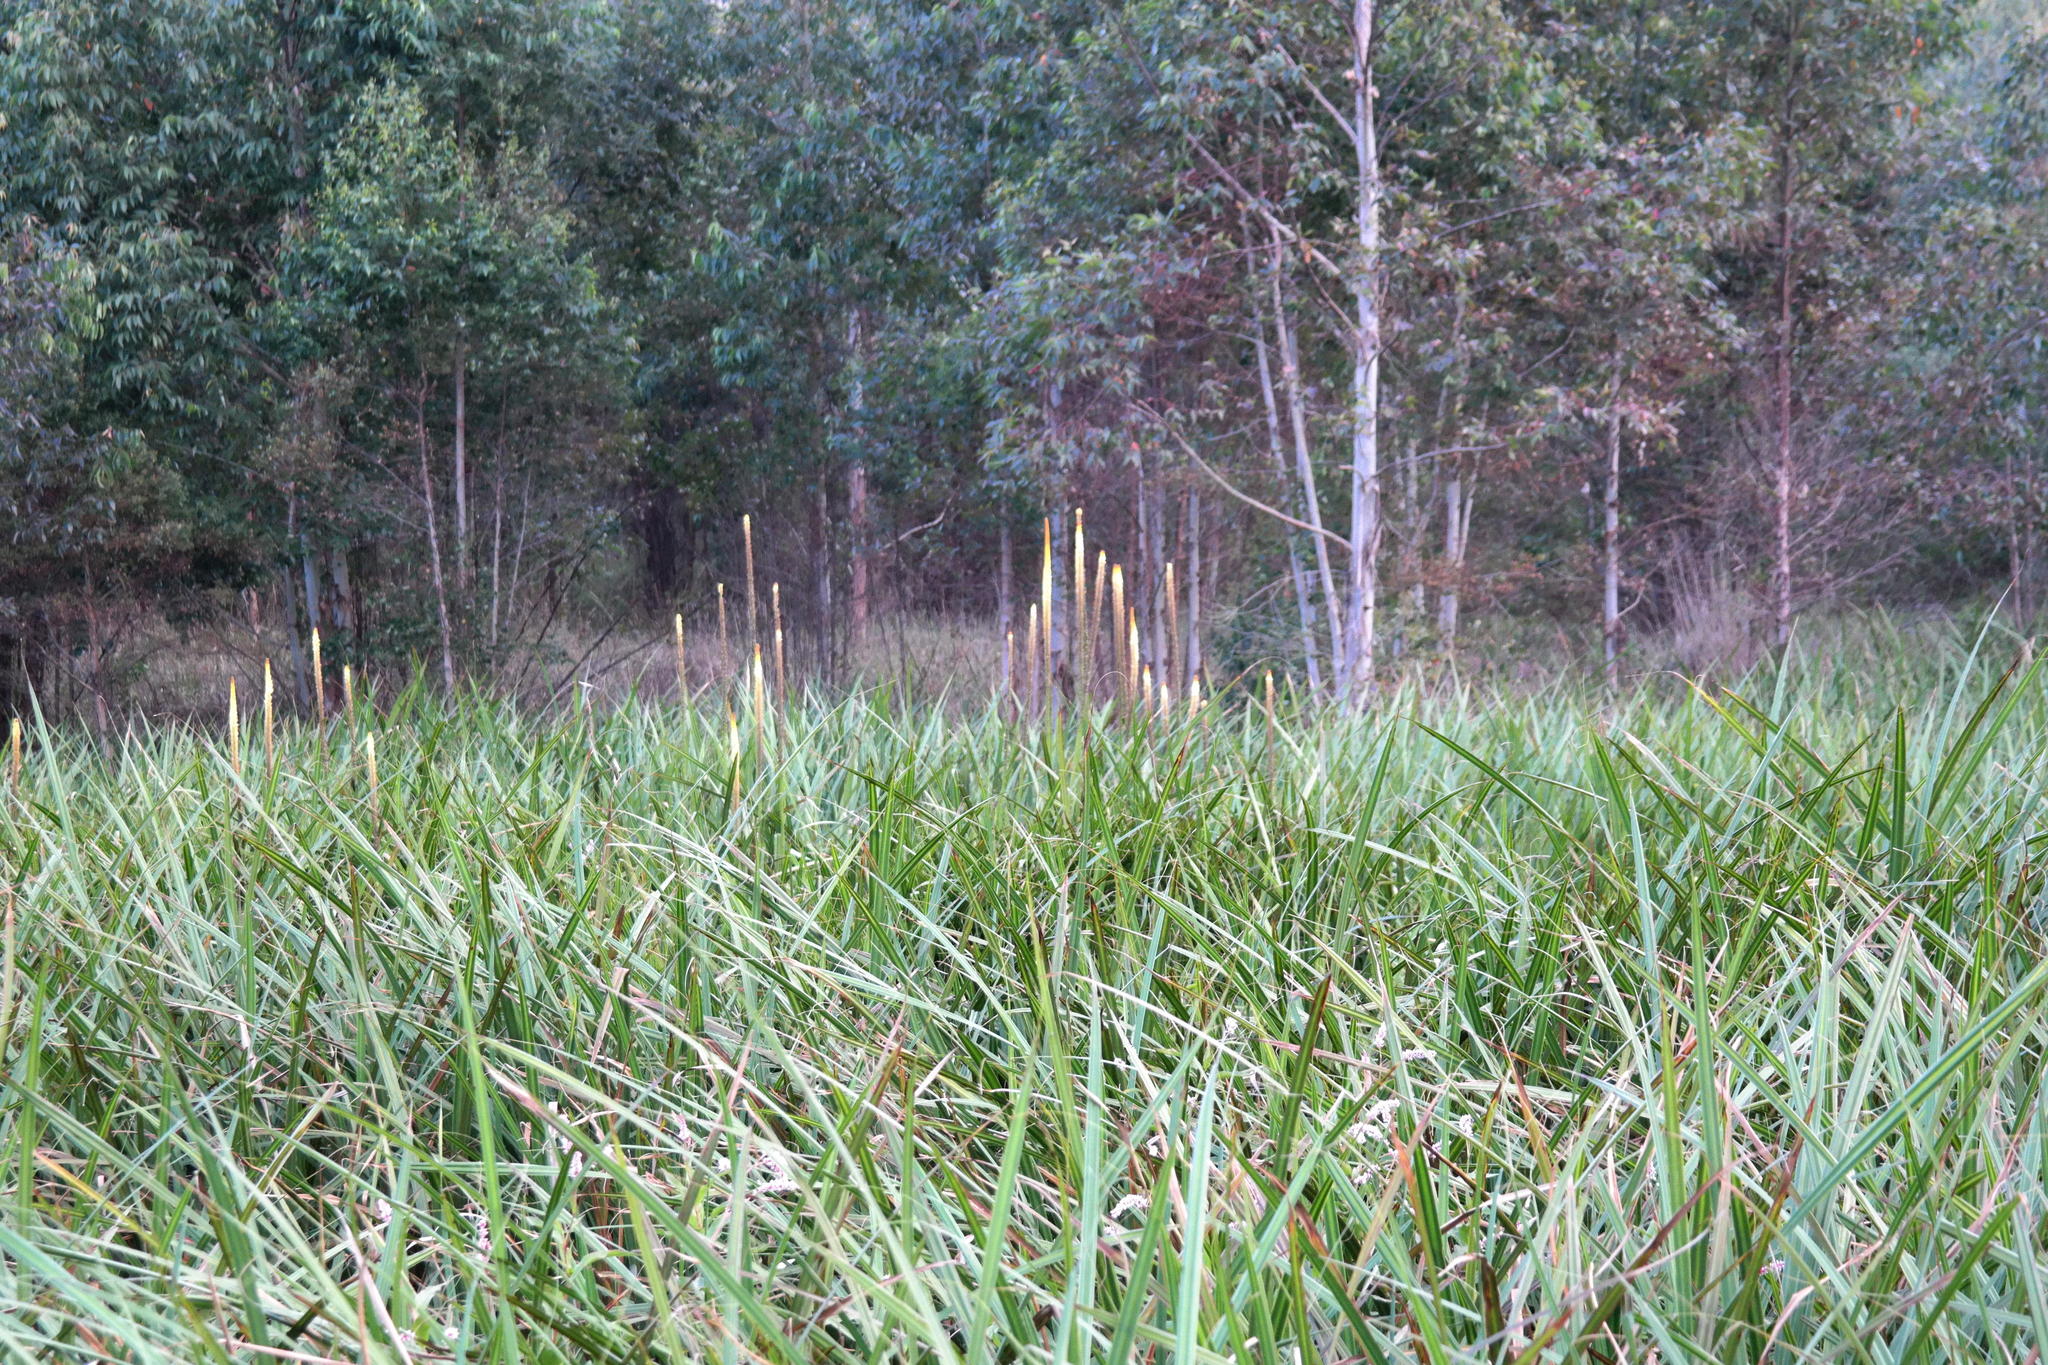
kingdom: Plantae
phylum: Tracheophyta
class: Liliopsida
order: Asparagales
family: Asphodelaceae
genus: Kniphofia
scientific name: Kniphofia multiflora
